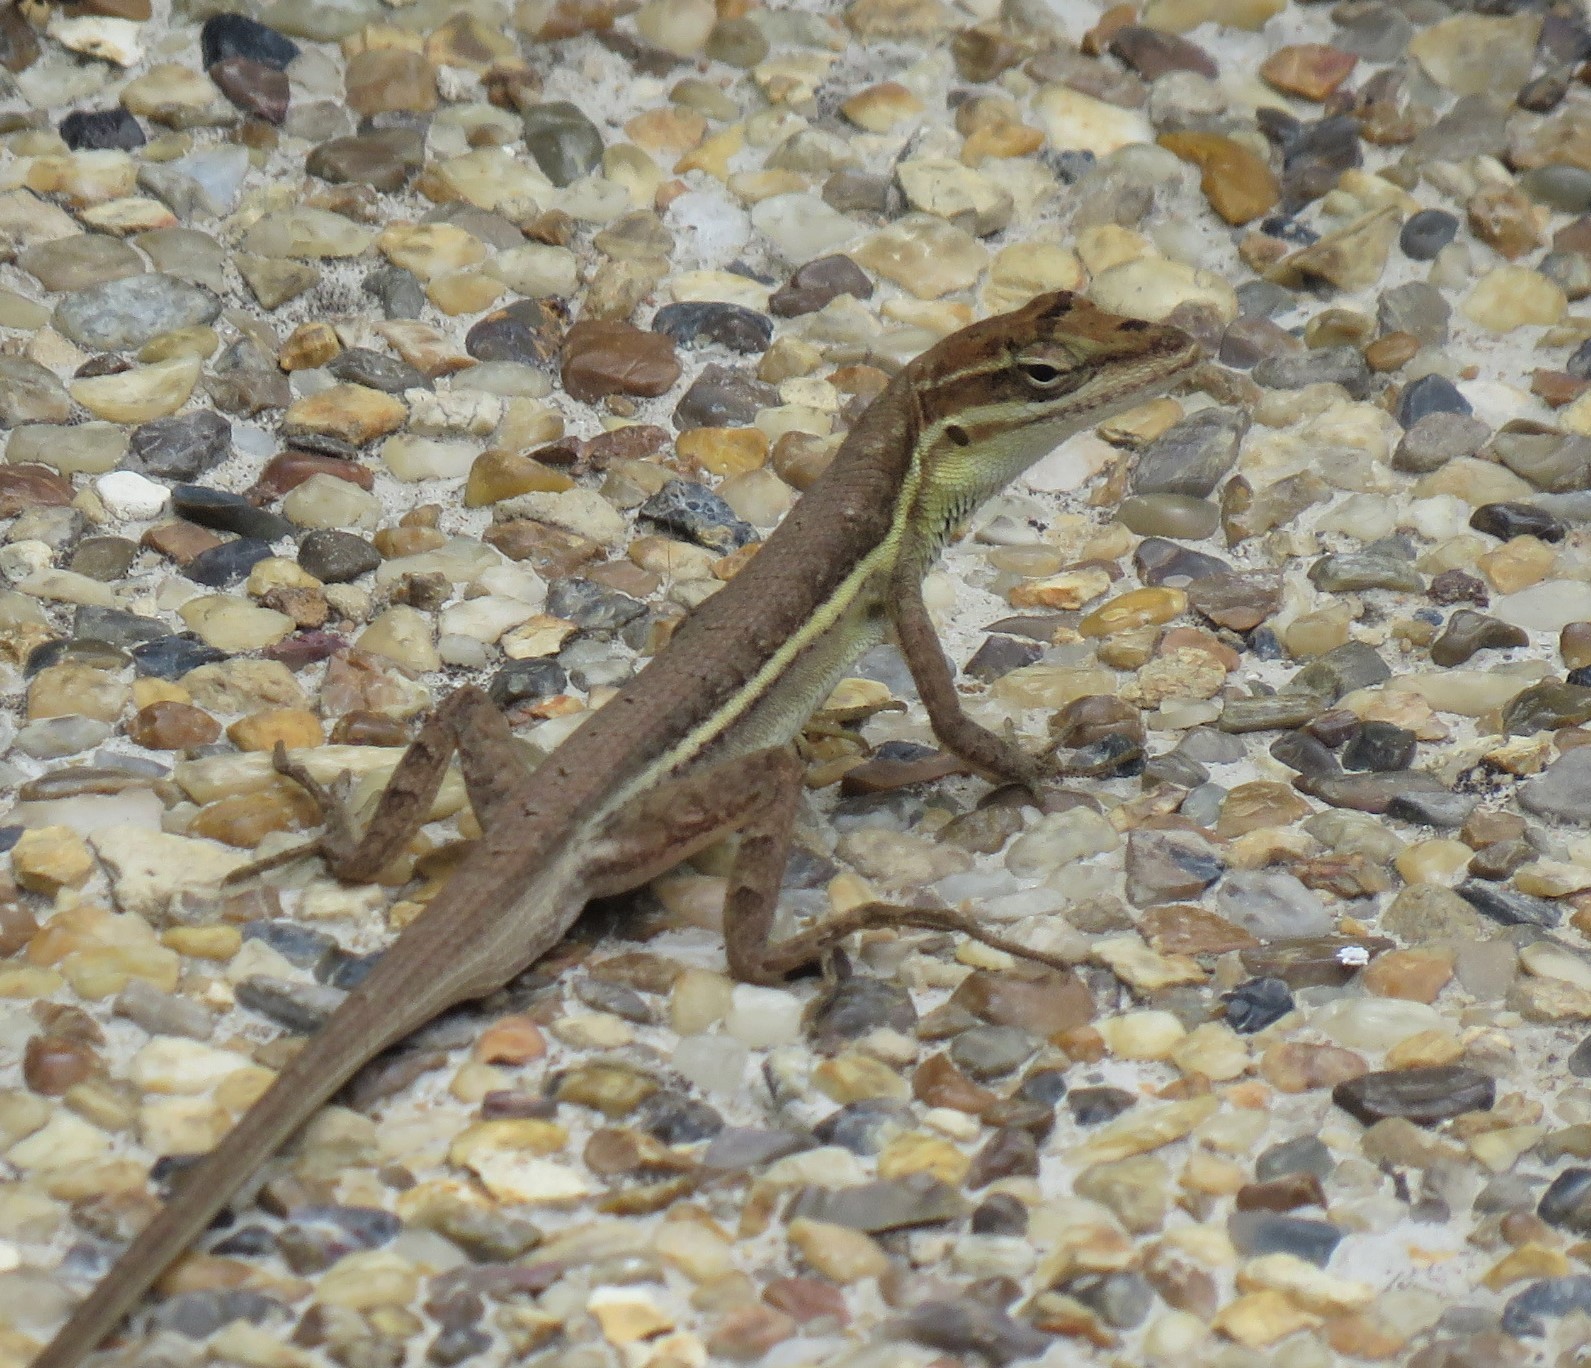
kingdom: Animalia
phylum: Chordata
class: Squamata
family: Dactyloidae
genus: Anolis
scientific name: Anolis auratus
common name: Grass anole
